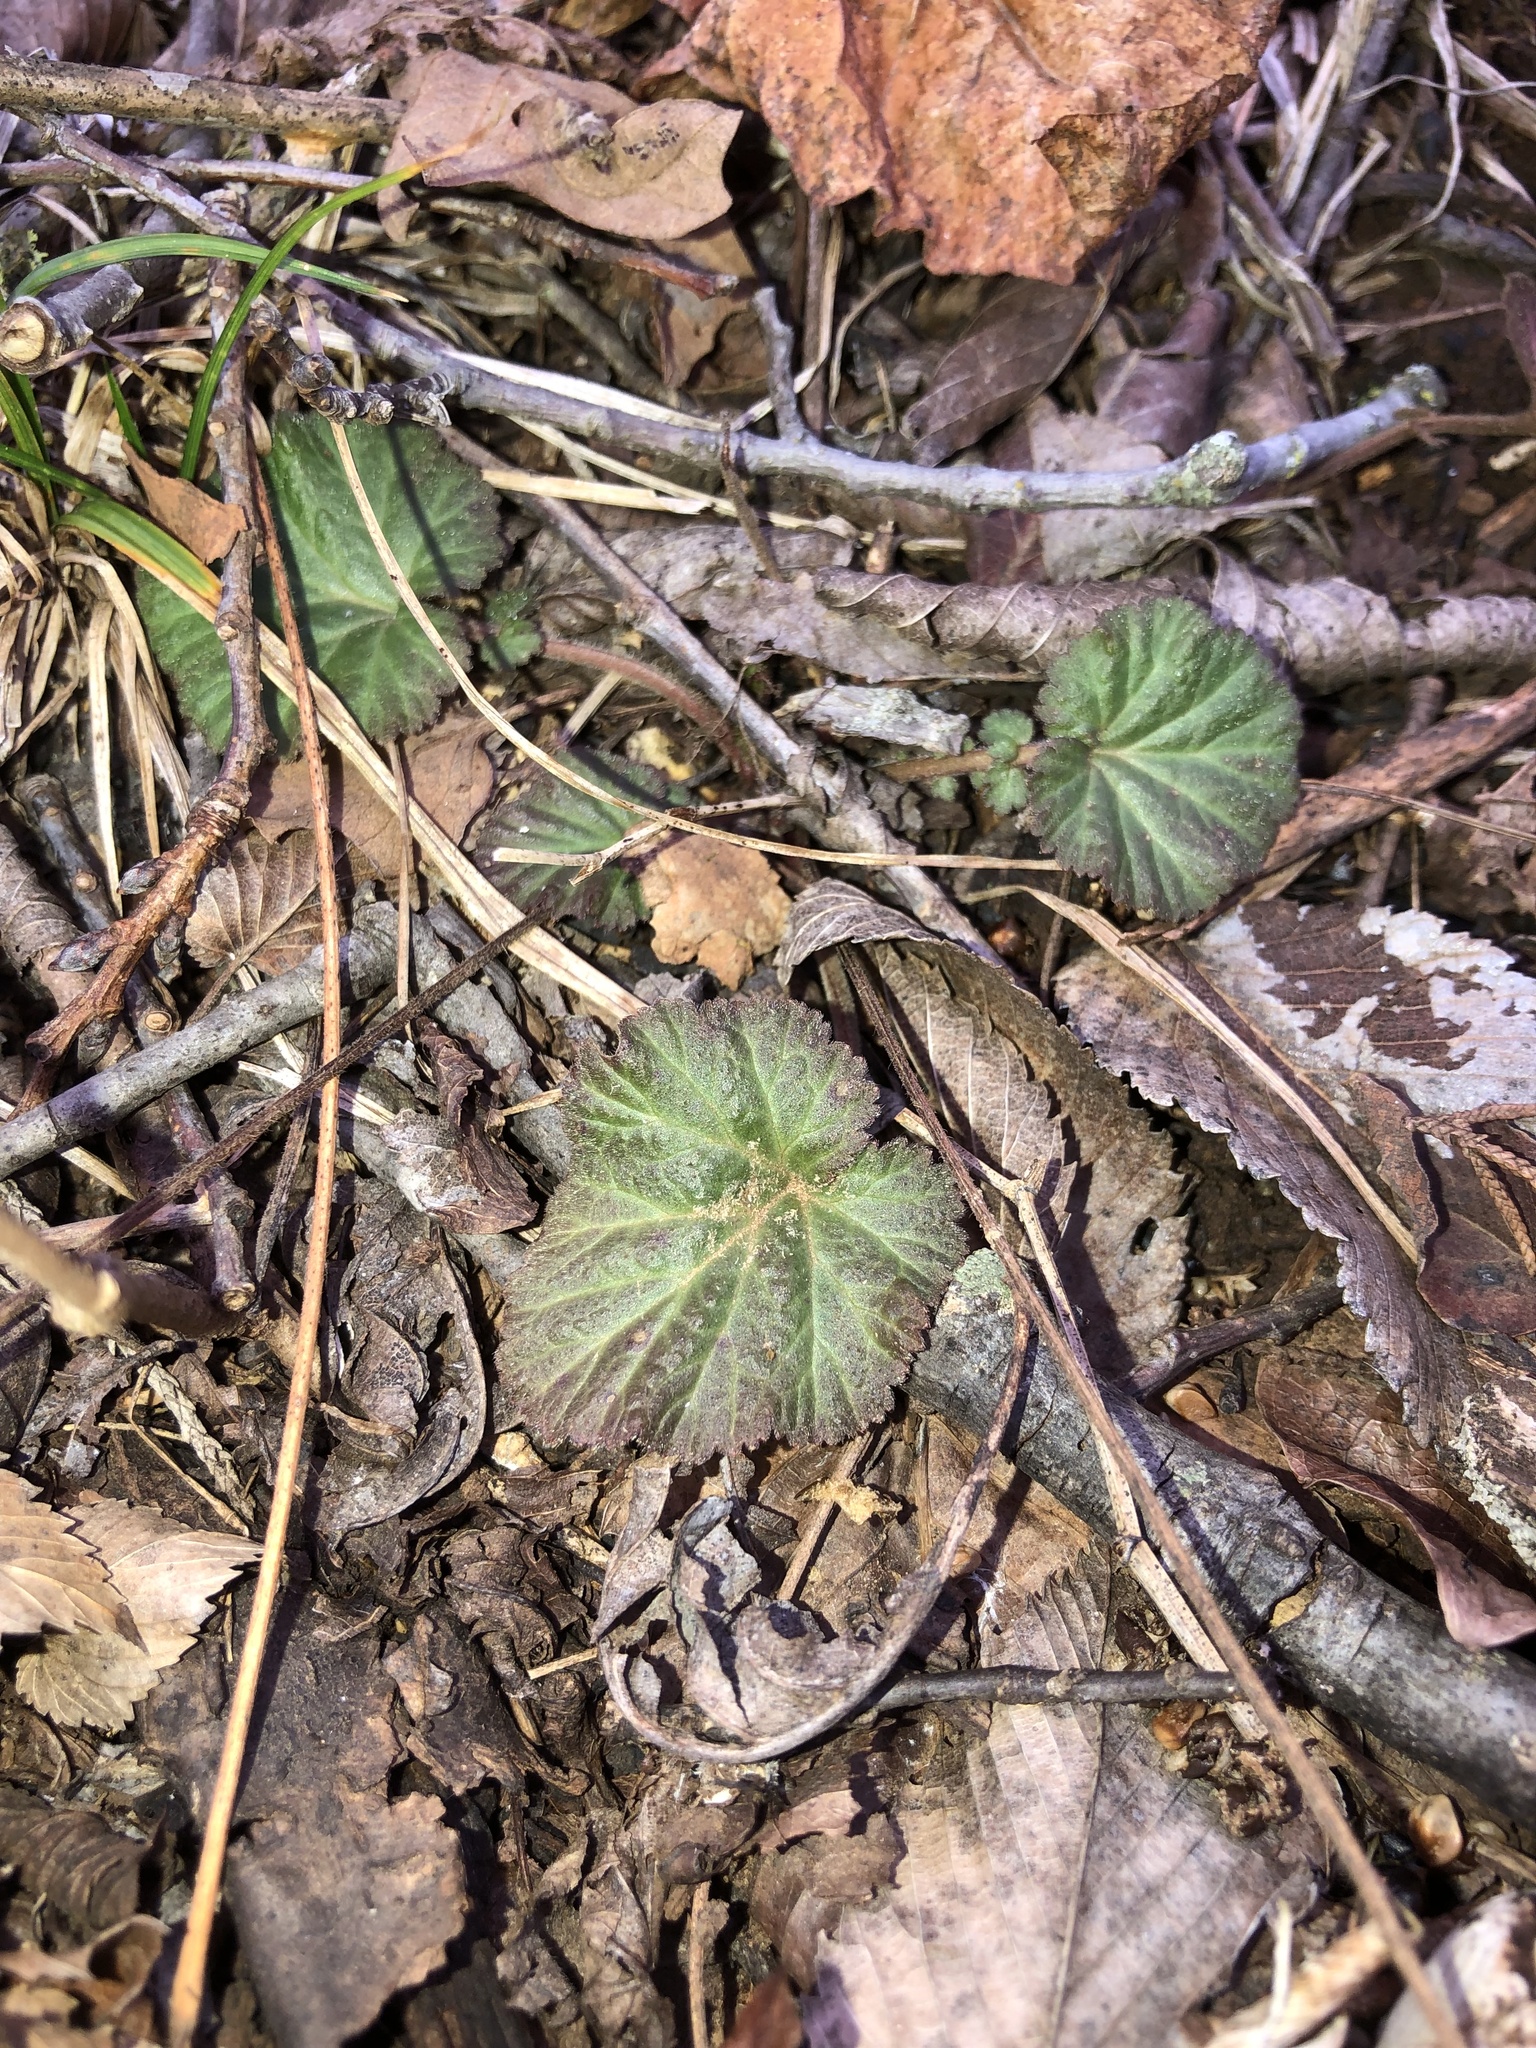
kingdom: Plantae
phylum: Tracheophyta
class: Magnoliopsida
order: Rosales
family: Rosaceae
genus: Geum
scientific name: Geum canadense
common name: White avens
